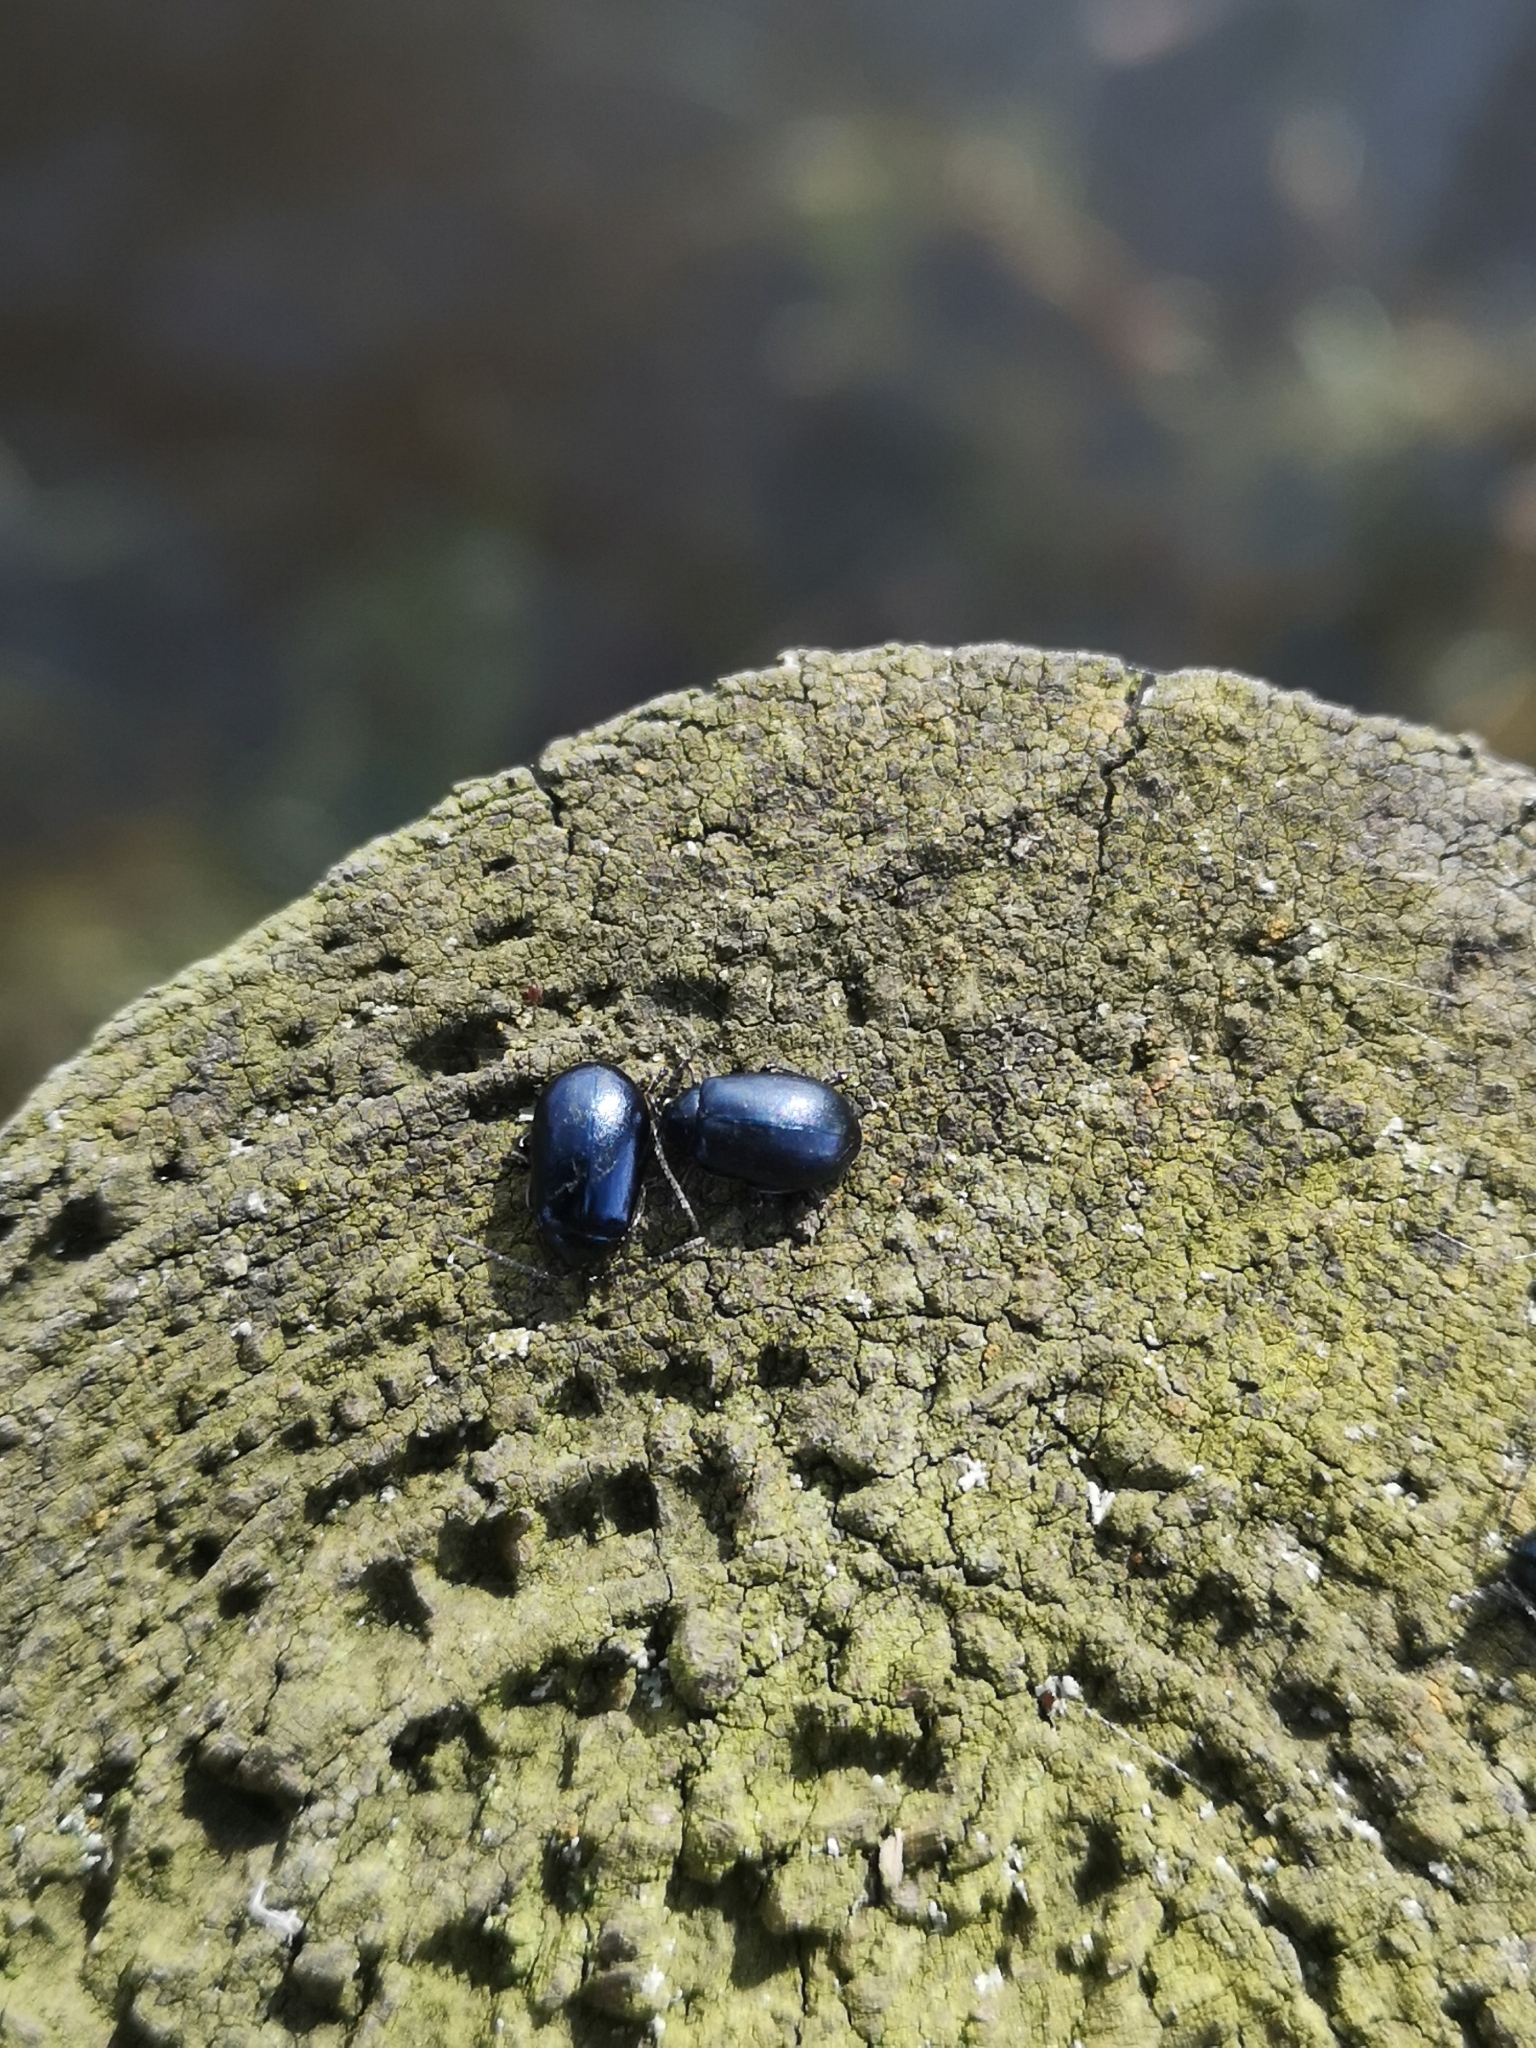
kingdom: Animalia
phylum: Arthropoda
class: Insecta
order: Coleoptera
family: Chrysomelidae
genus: Agelastica
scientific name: Agelastica alni
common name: Alder leaf beetle
